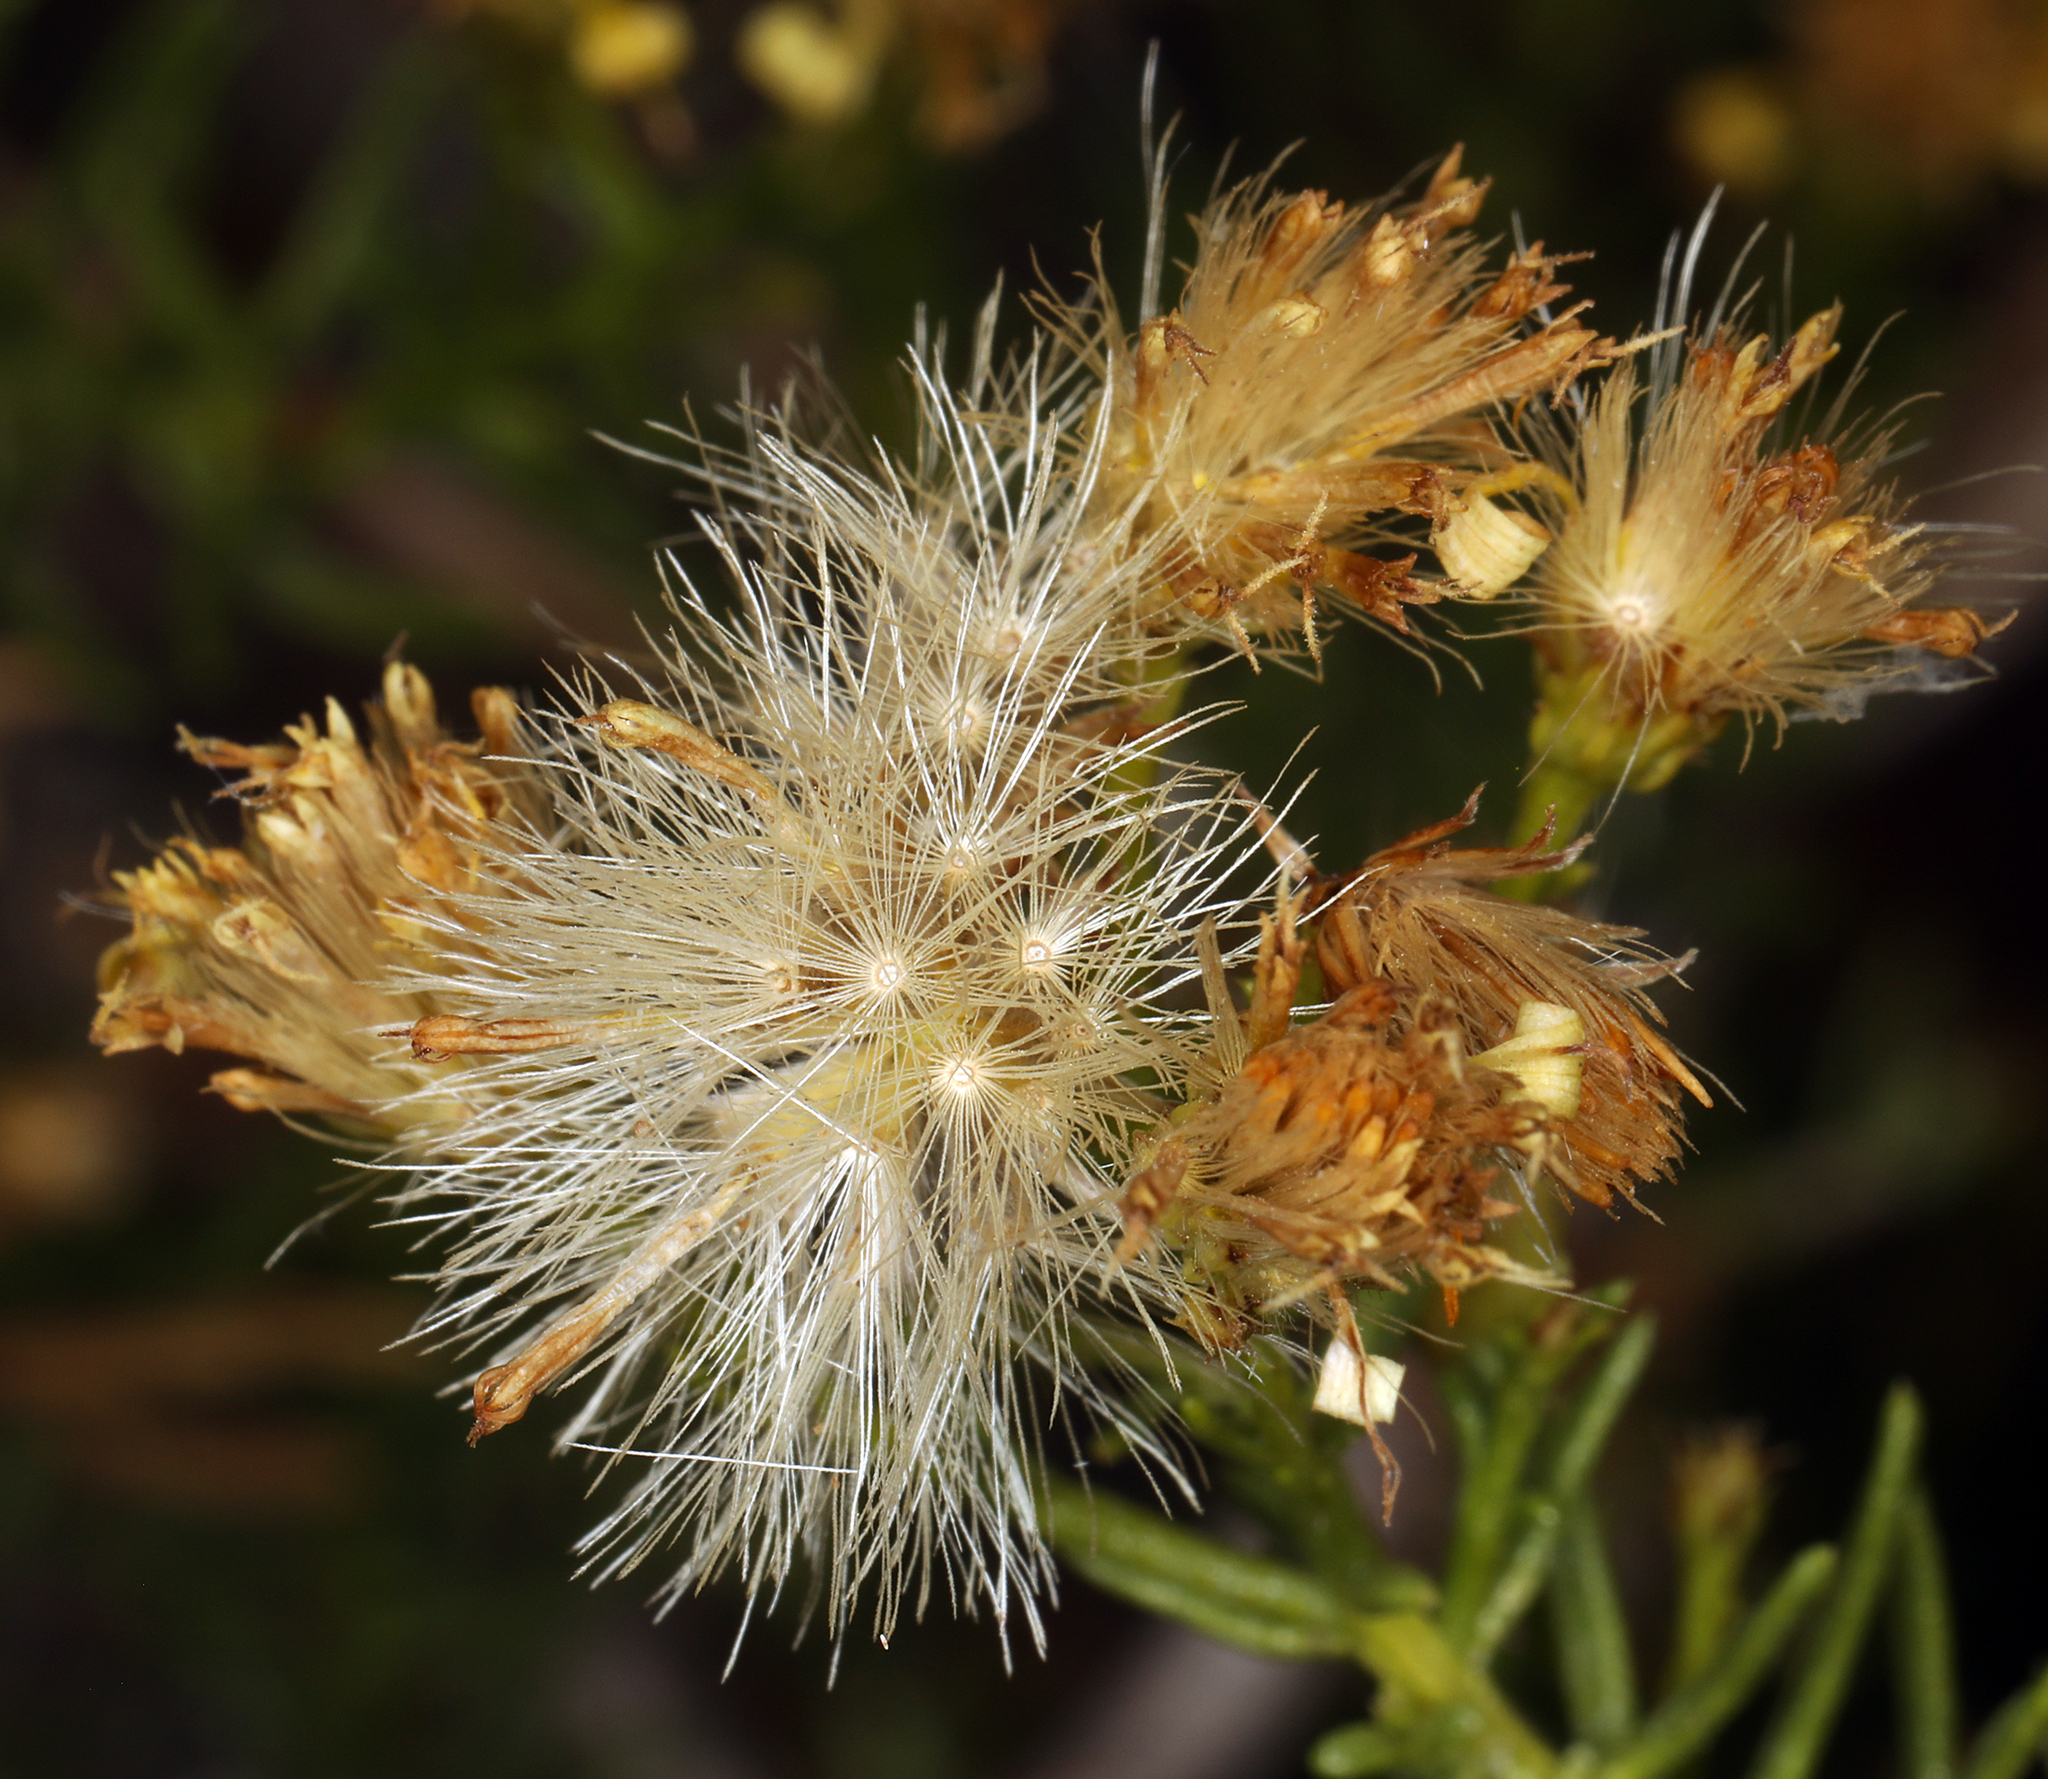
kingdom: Plantae
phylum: Tracheophyta
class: Magnoliopsida
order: Asterales
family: Asteraceae
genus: Ericameria
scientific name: Ericameria laricifolia
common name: Turpentine-bush
